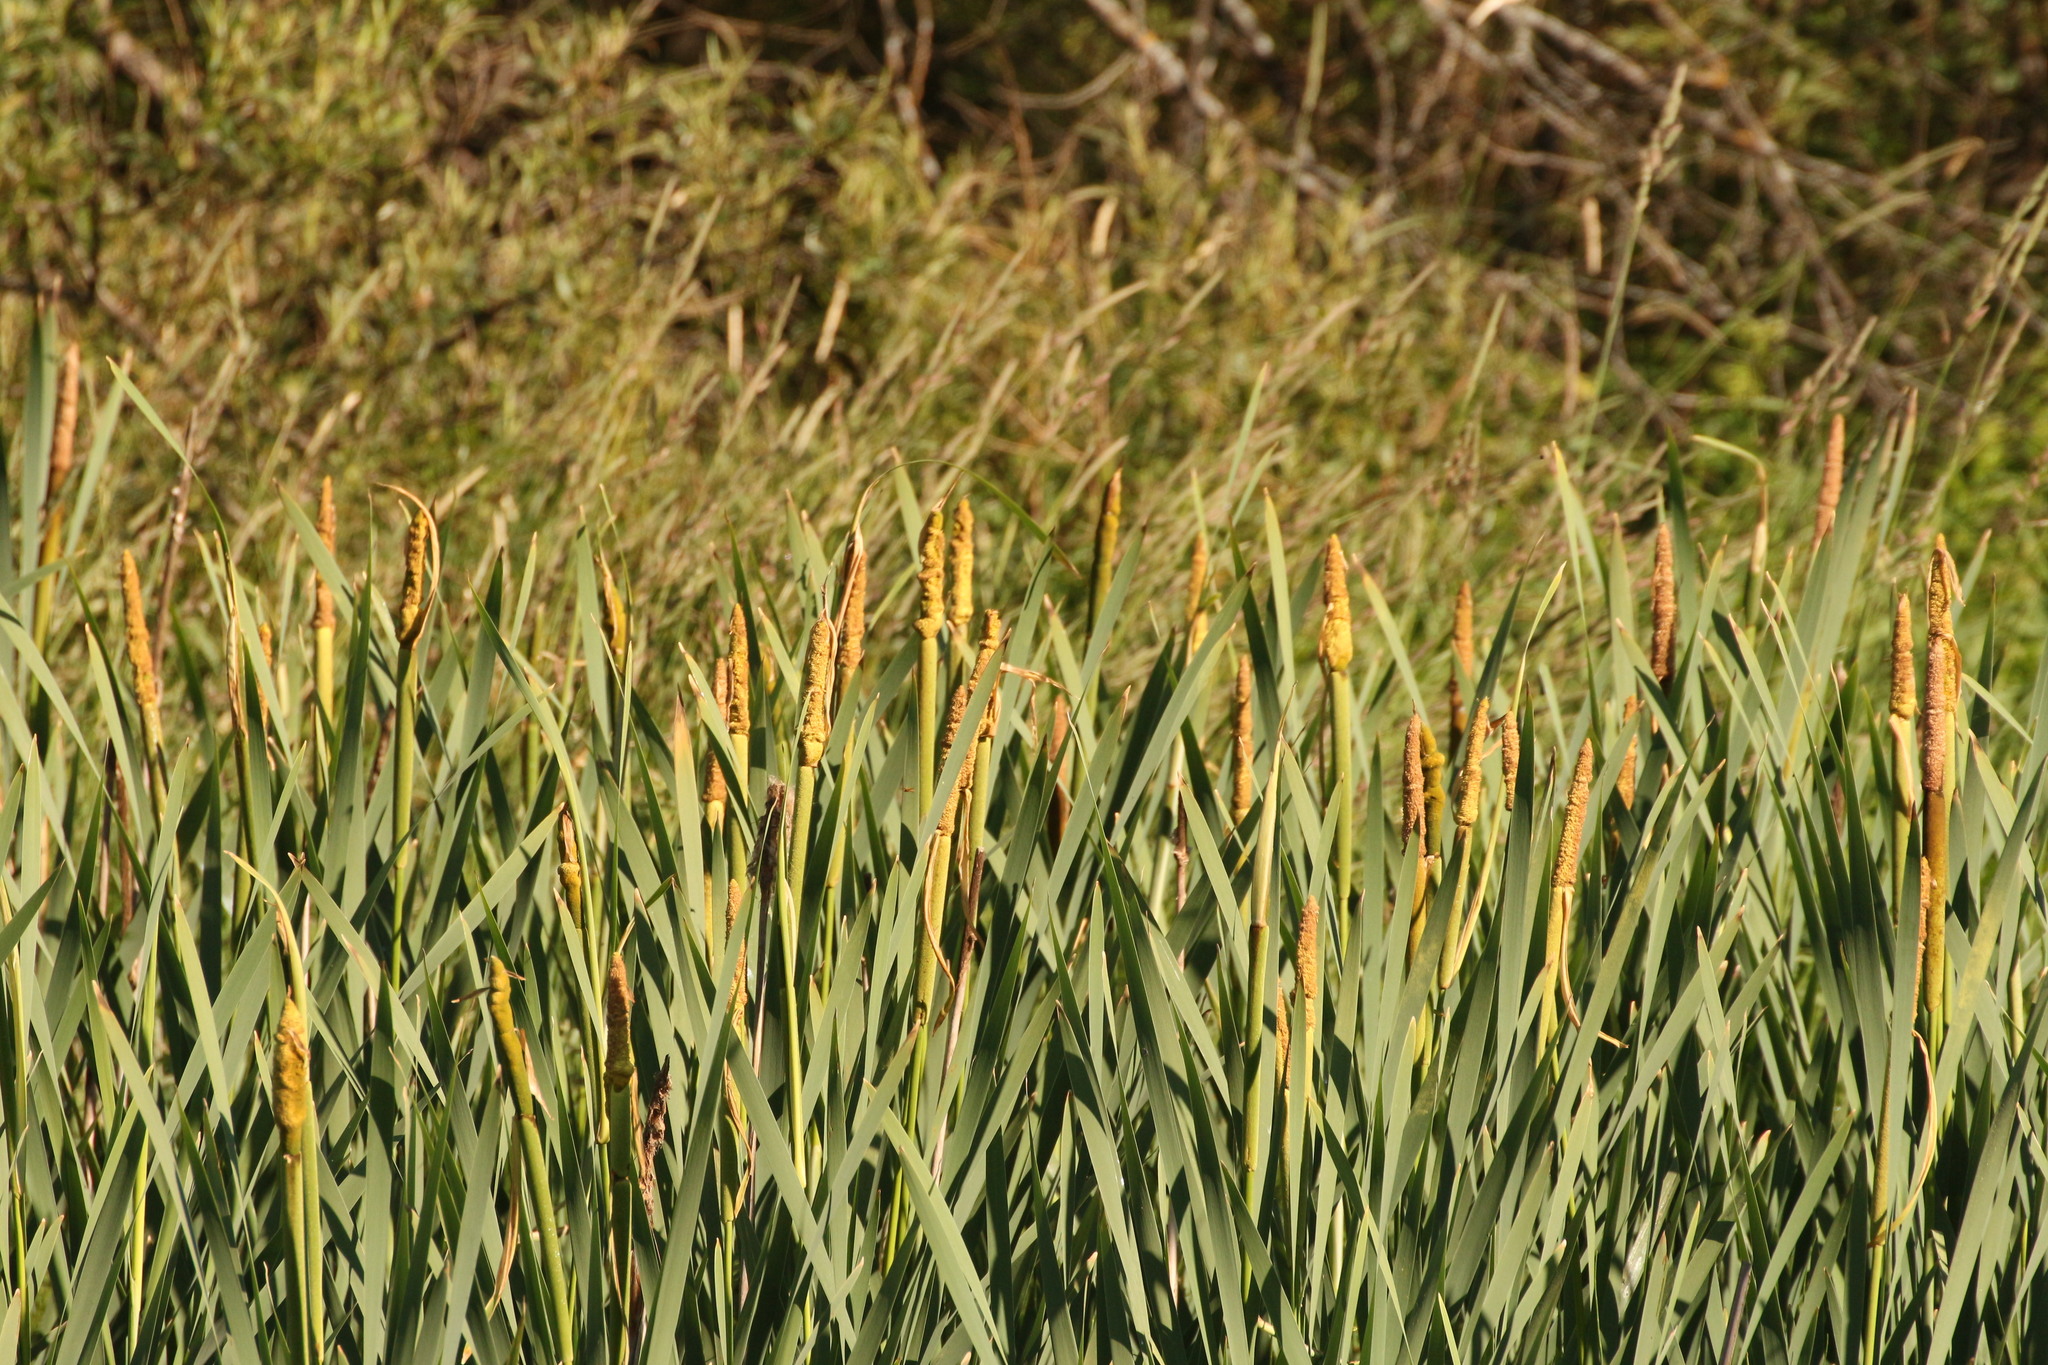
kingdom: Plantae
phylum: Tracheophyta
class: Liliopsida
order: Poales
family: Typhaceae
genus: Typha
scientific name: Typha latifolia
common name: Broadleaf cattail
